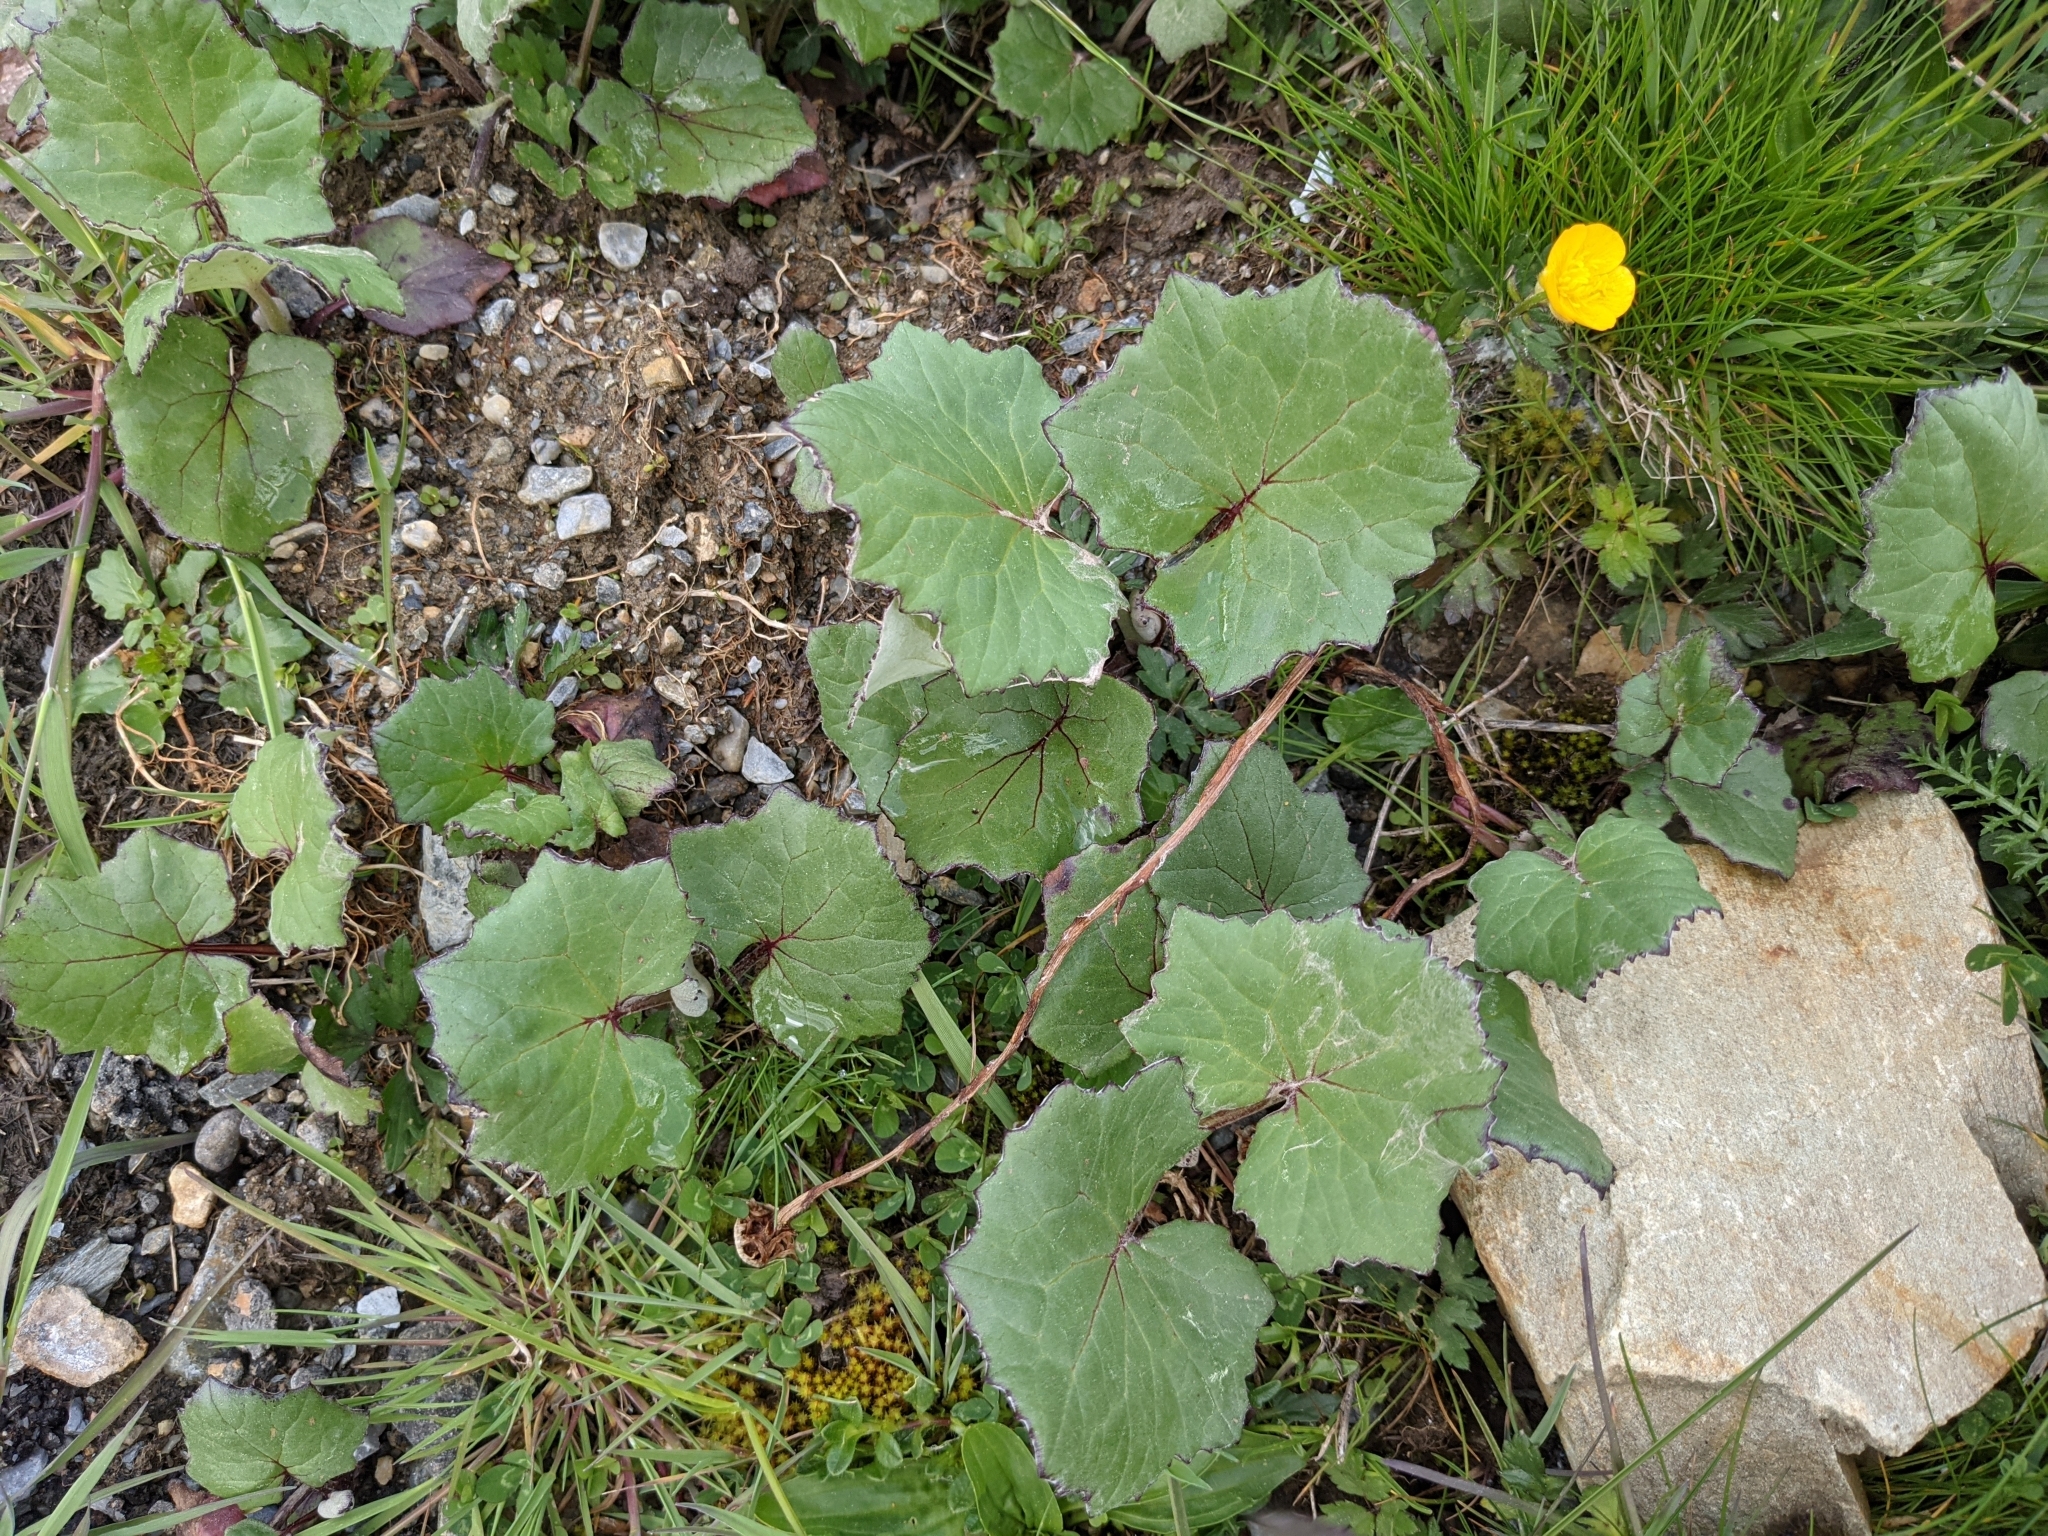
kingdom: Plantae
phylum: Tracheophyta
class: Magnoliopsida
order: Asterales
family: Asteraceae
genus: Tussilago
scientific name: Tussilago farfara
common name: Coltsfoot
